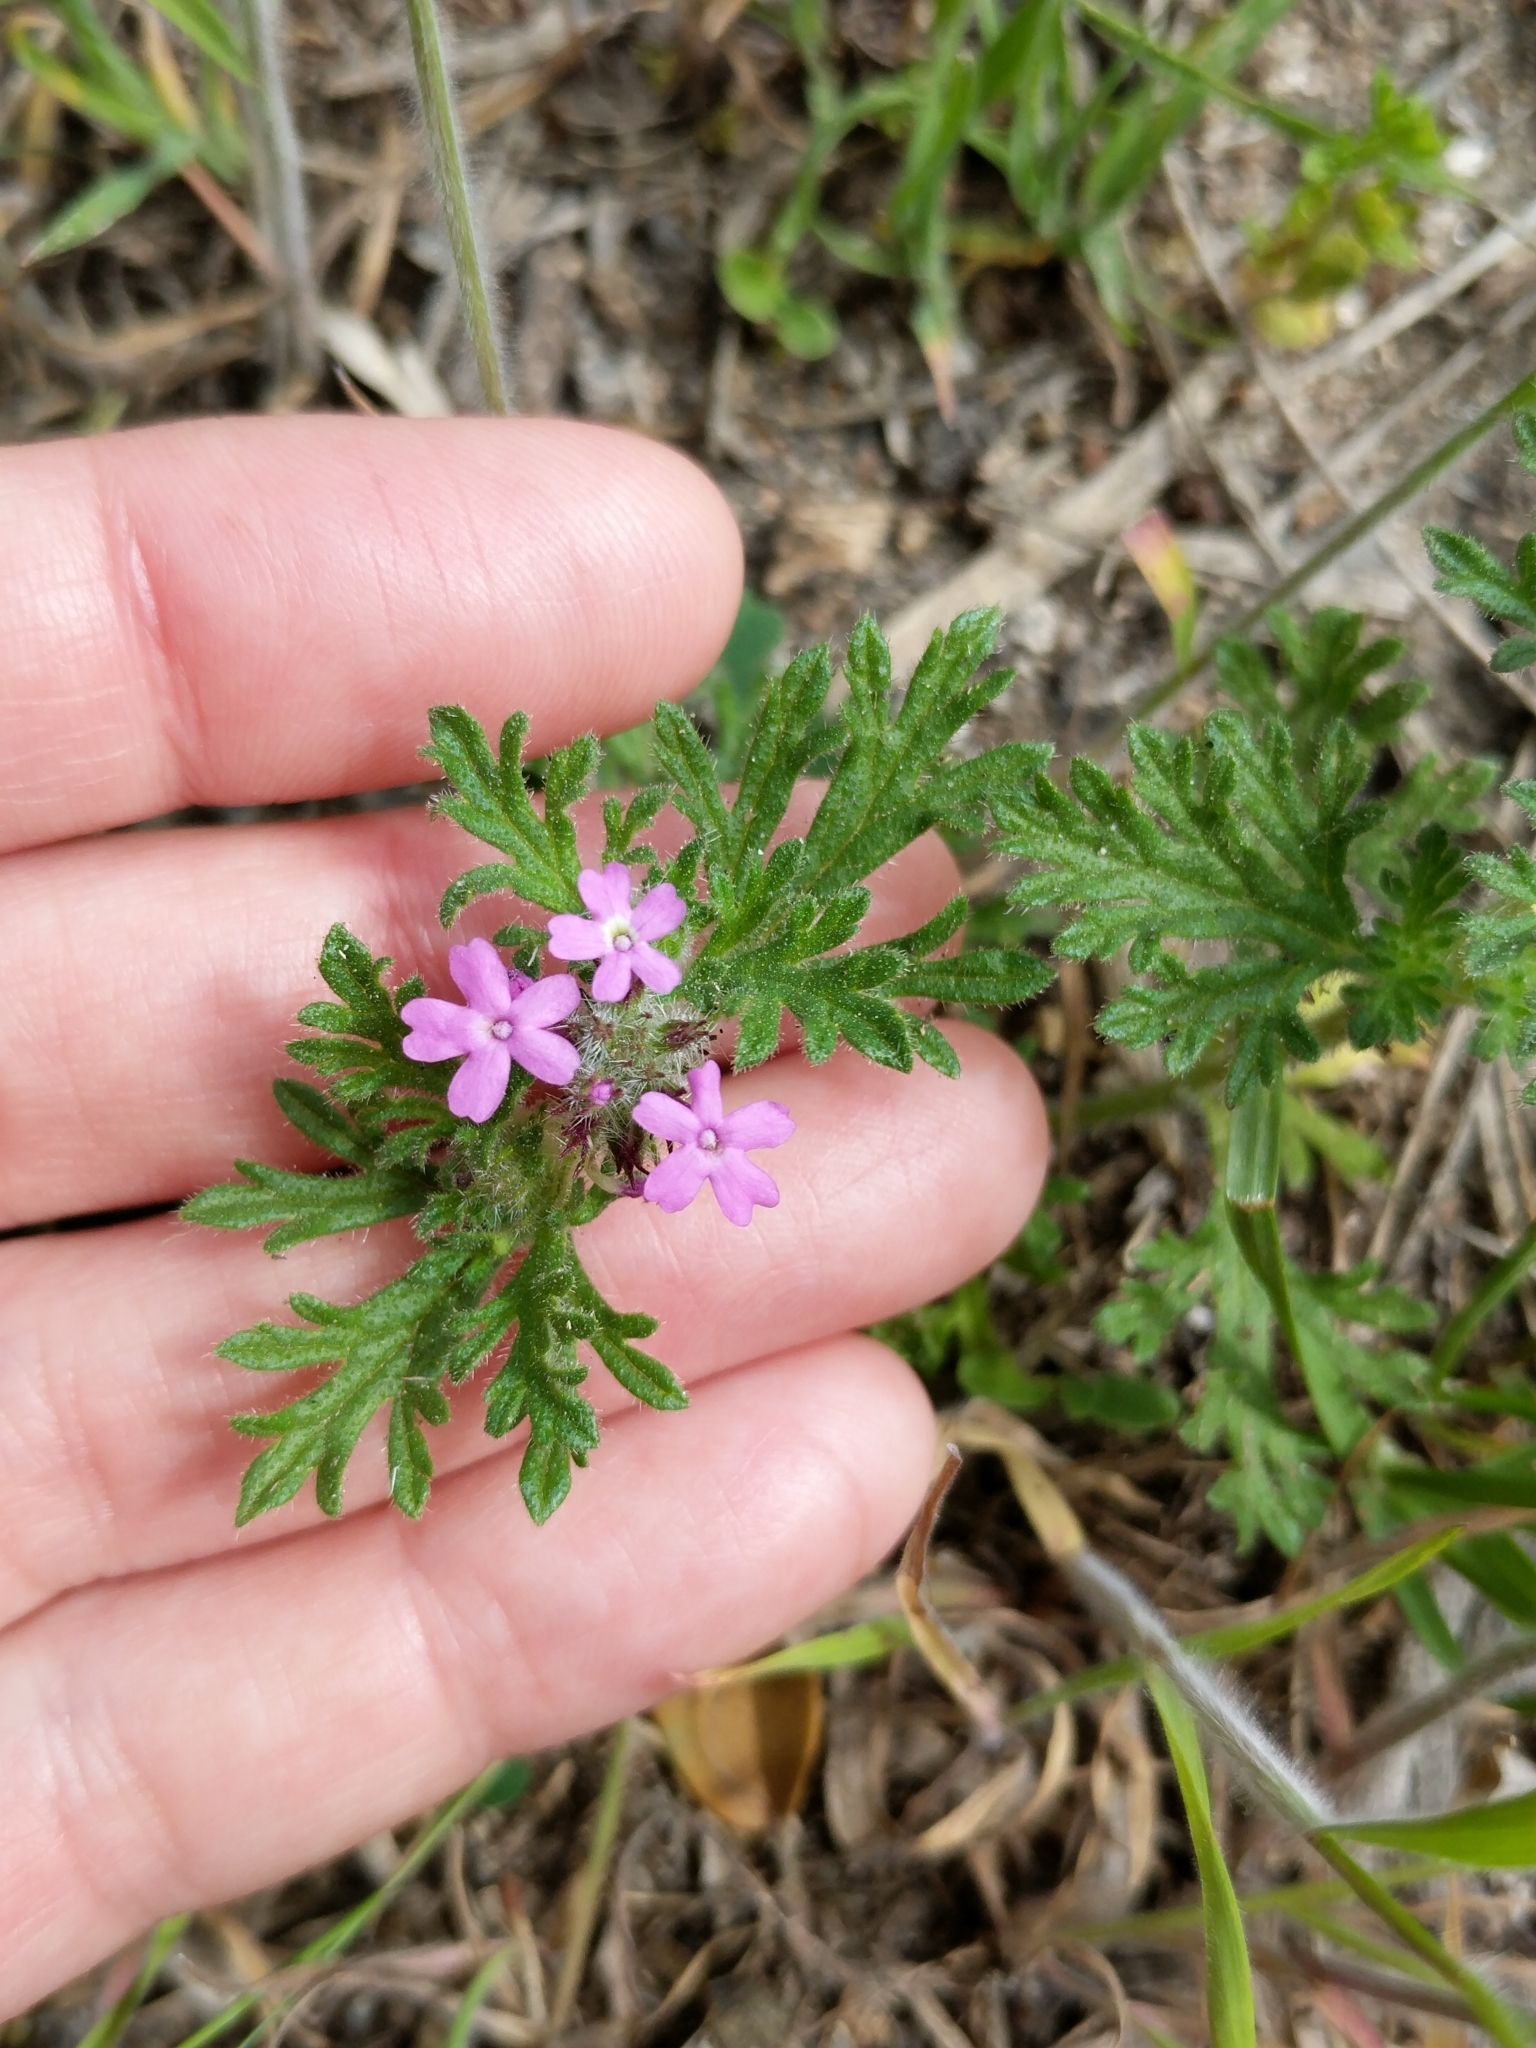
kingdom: Plantae
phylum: Tracheophyta
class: Magnoliopsida
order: Lamiales
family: Verbenaceae
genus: Verbena
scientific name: Verbena pumila
